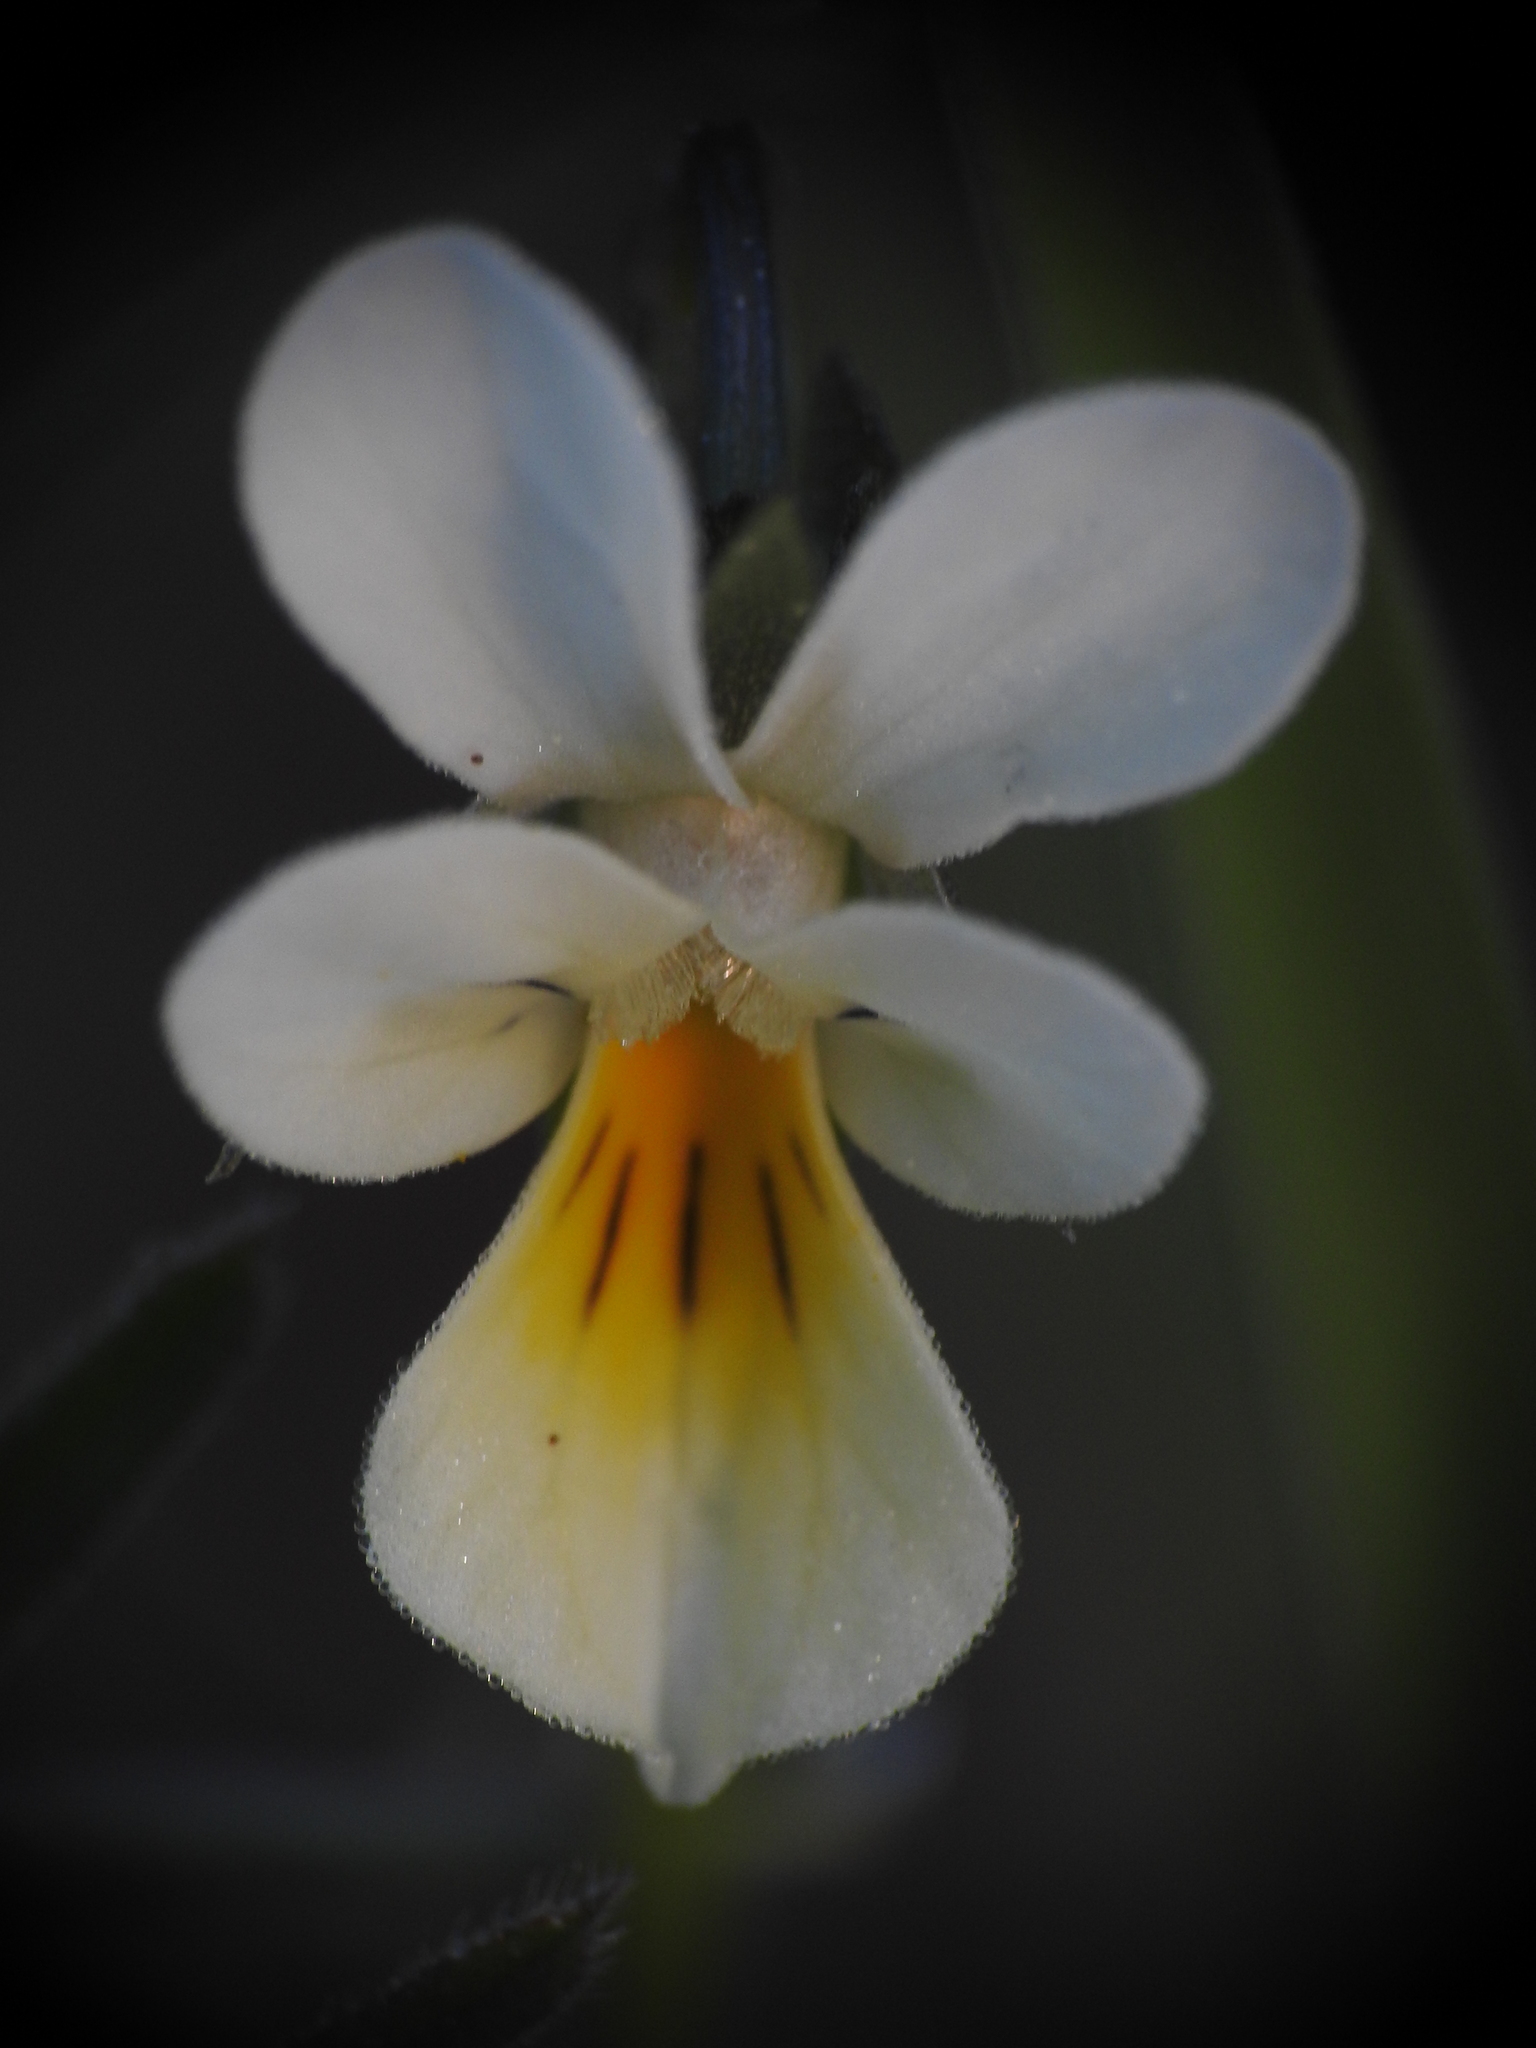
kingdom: Plantae
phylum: Tracheophyta
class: Magnoliopsida
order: Malpighiales
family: Violaceae
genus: Viola
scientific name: Viola arvensis
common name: Field pansy
